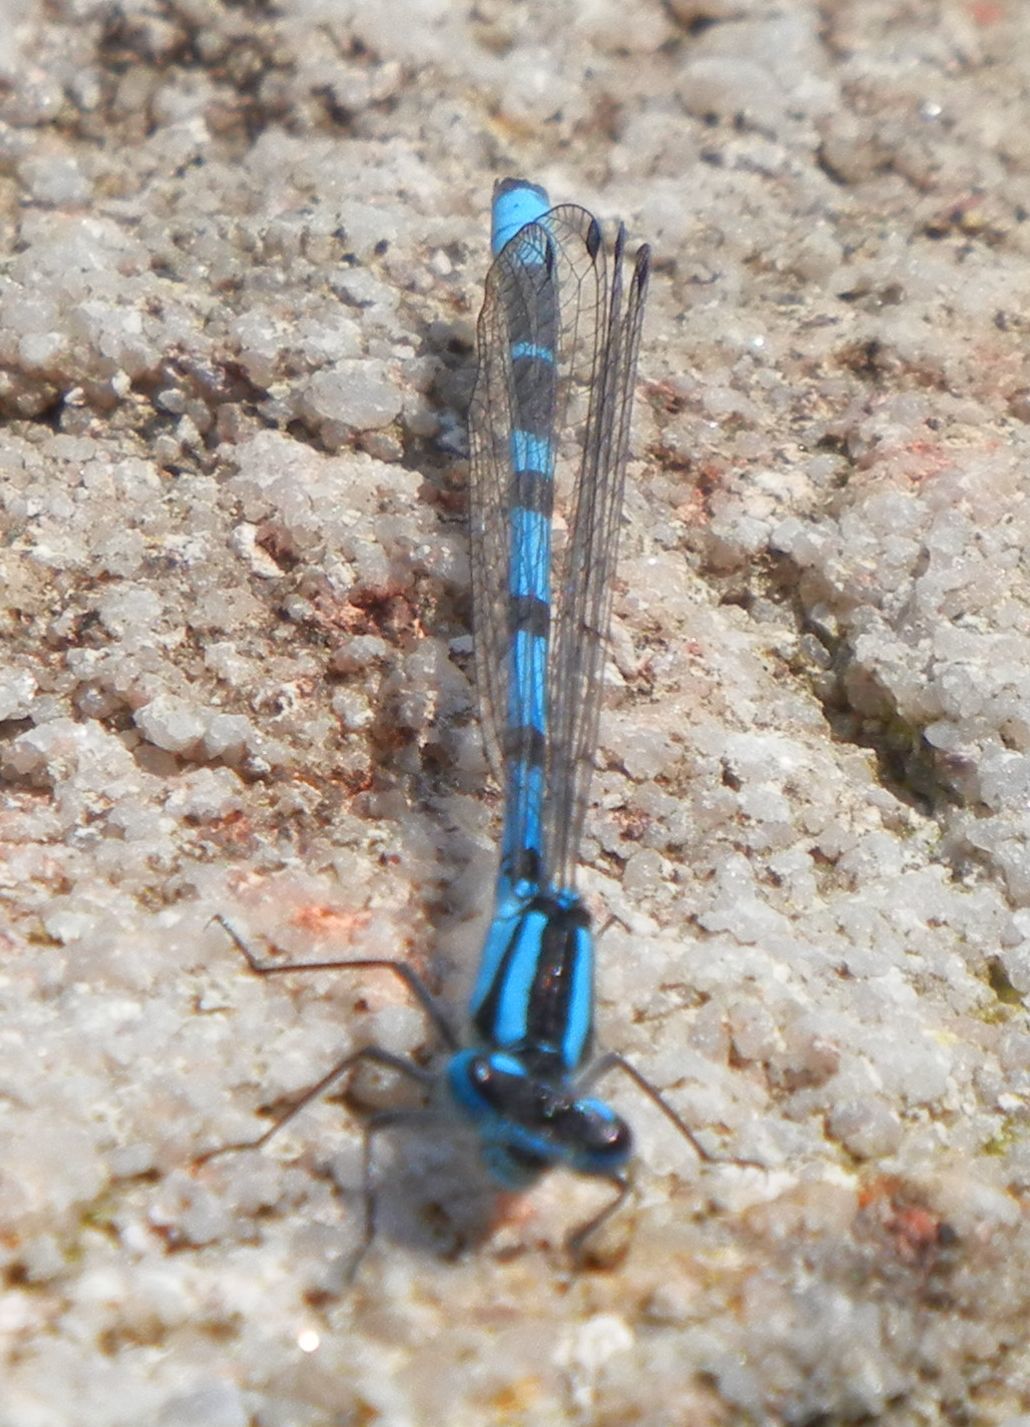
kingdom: Animalia
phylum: Arthropoda
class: Insecta
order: Odonata
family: Coenagrionidae
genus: Enallagma
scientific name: Enallagma cyathigerum
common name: Common blue damselfly
